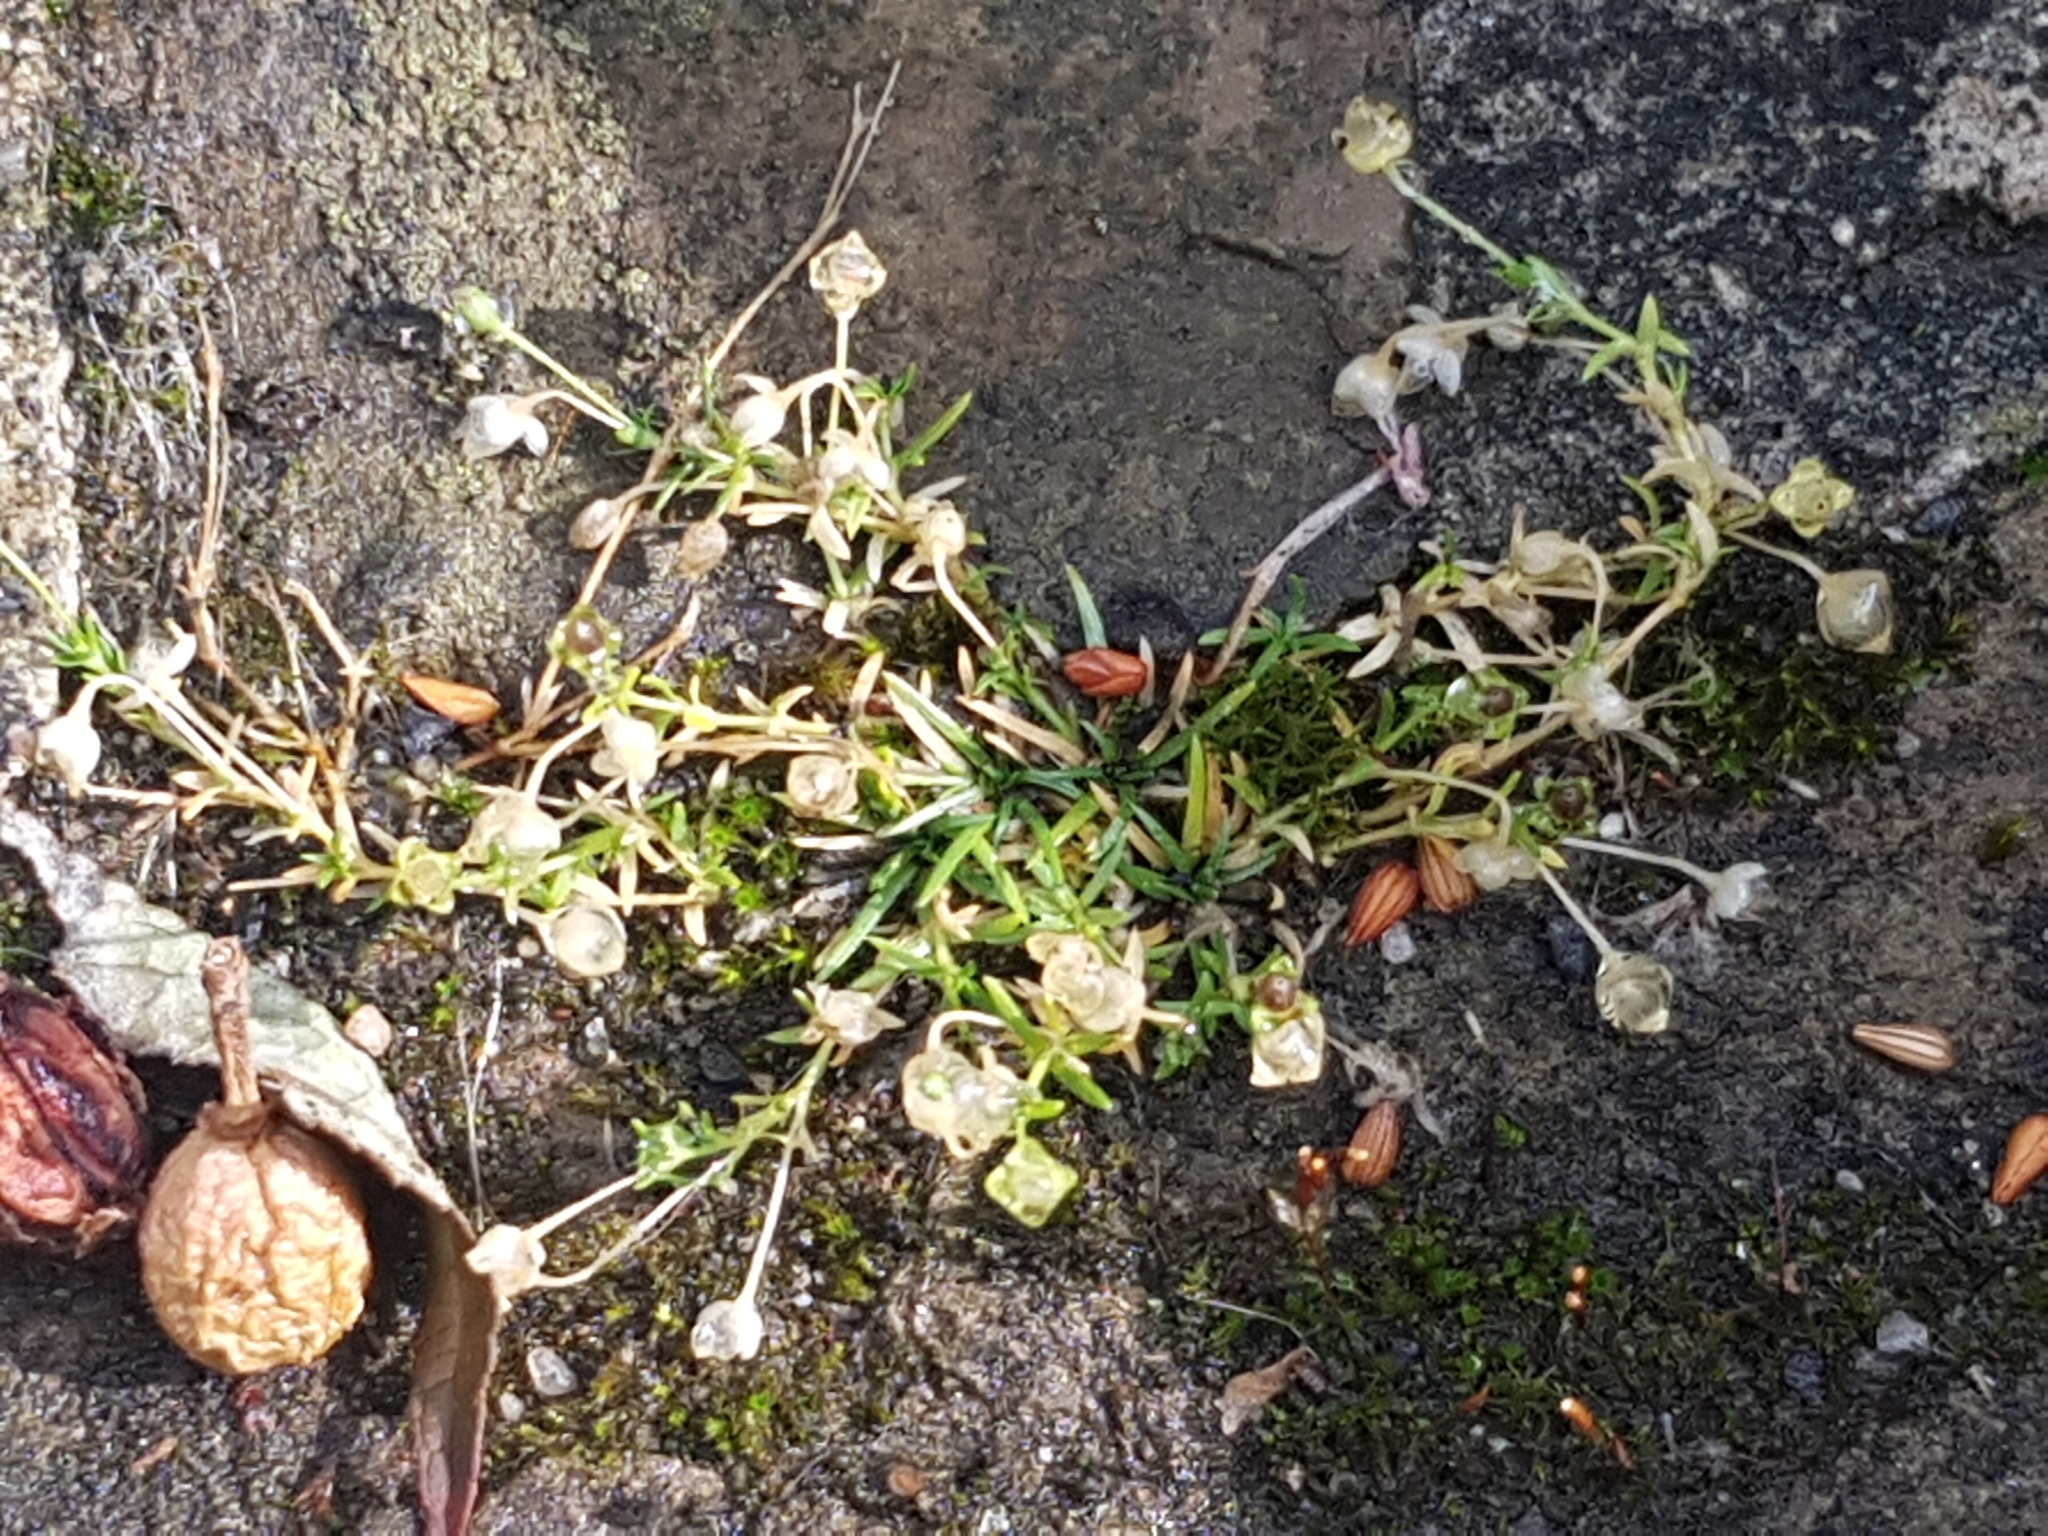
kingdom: Plantae
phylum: Tracheophyta
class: Magnoliopsida
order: Caryophyllales
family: Caryophyllaceae
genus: Sagina
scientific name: Sagina procumbens
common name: Procumbent pearlwort
